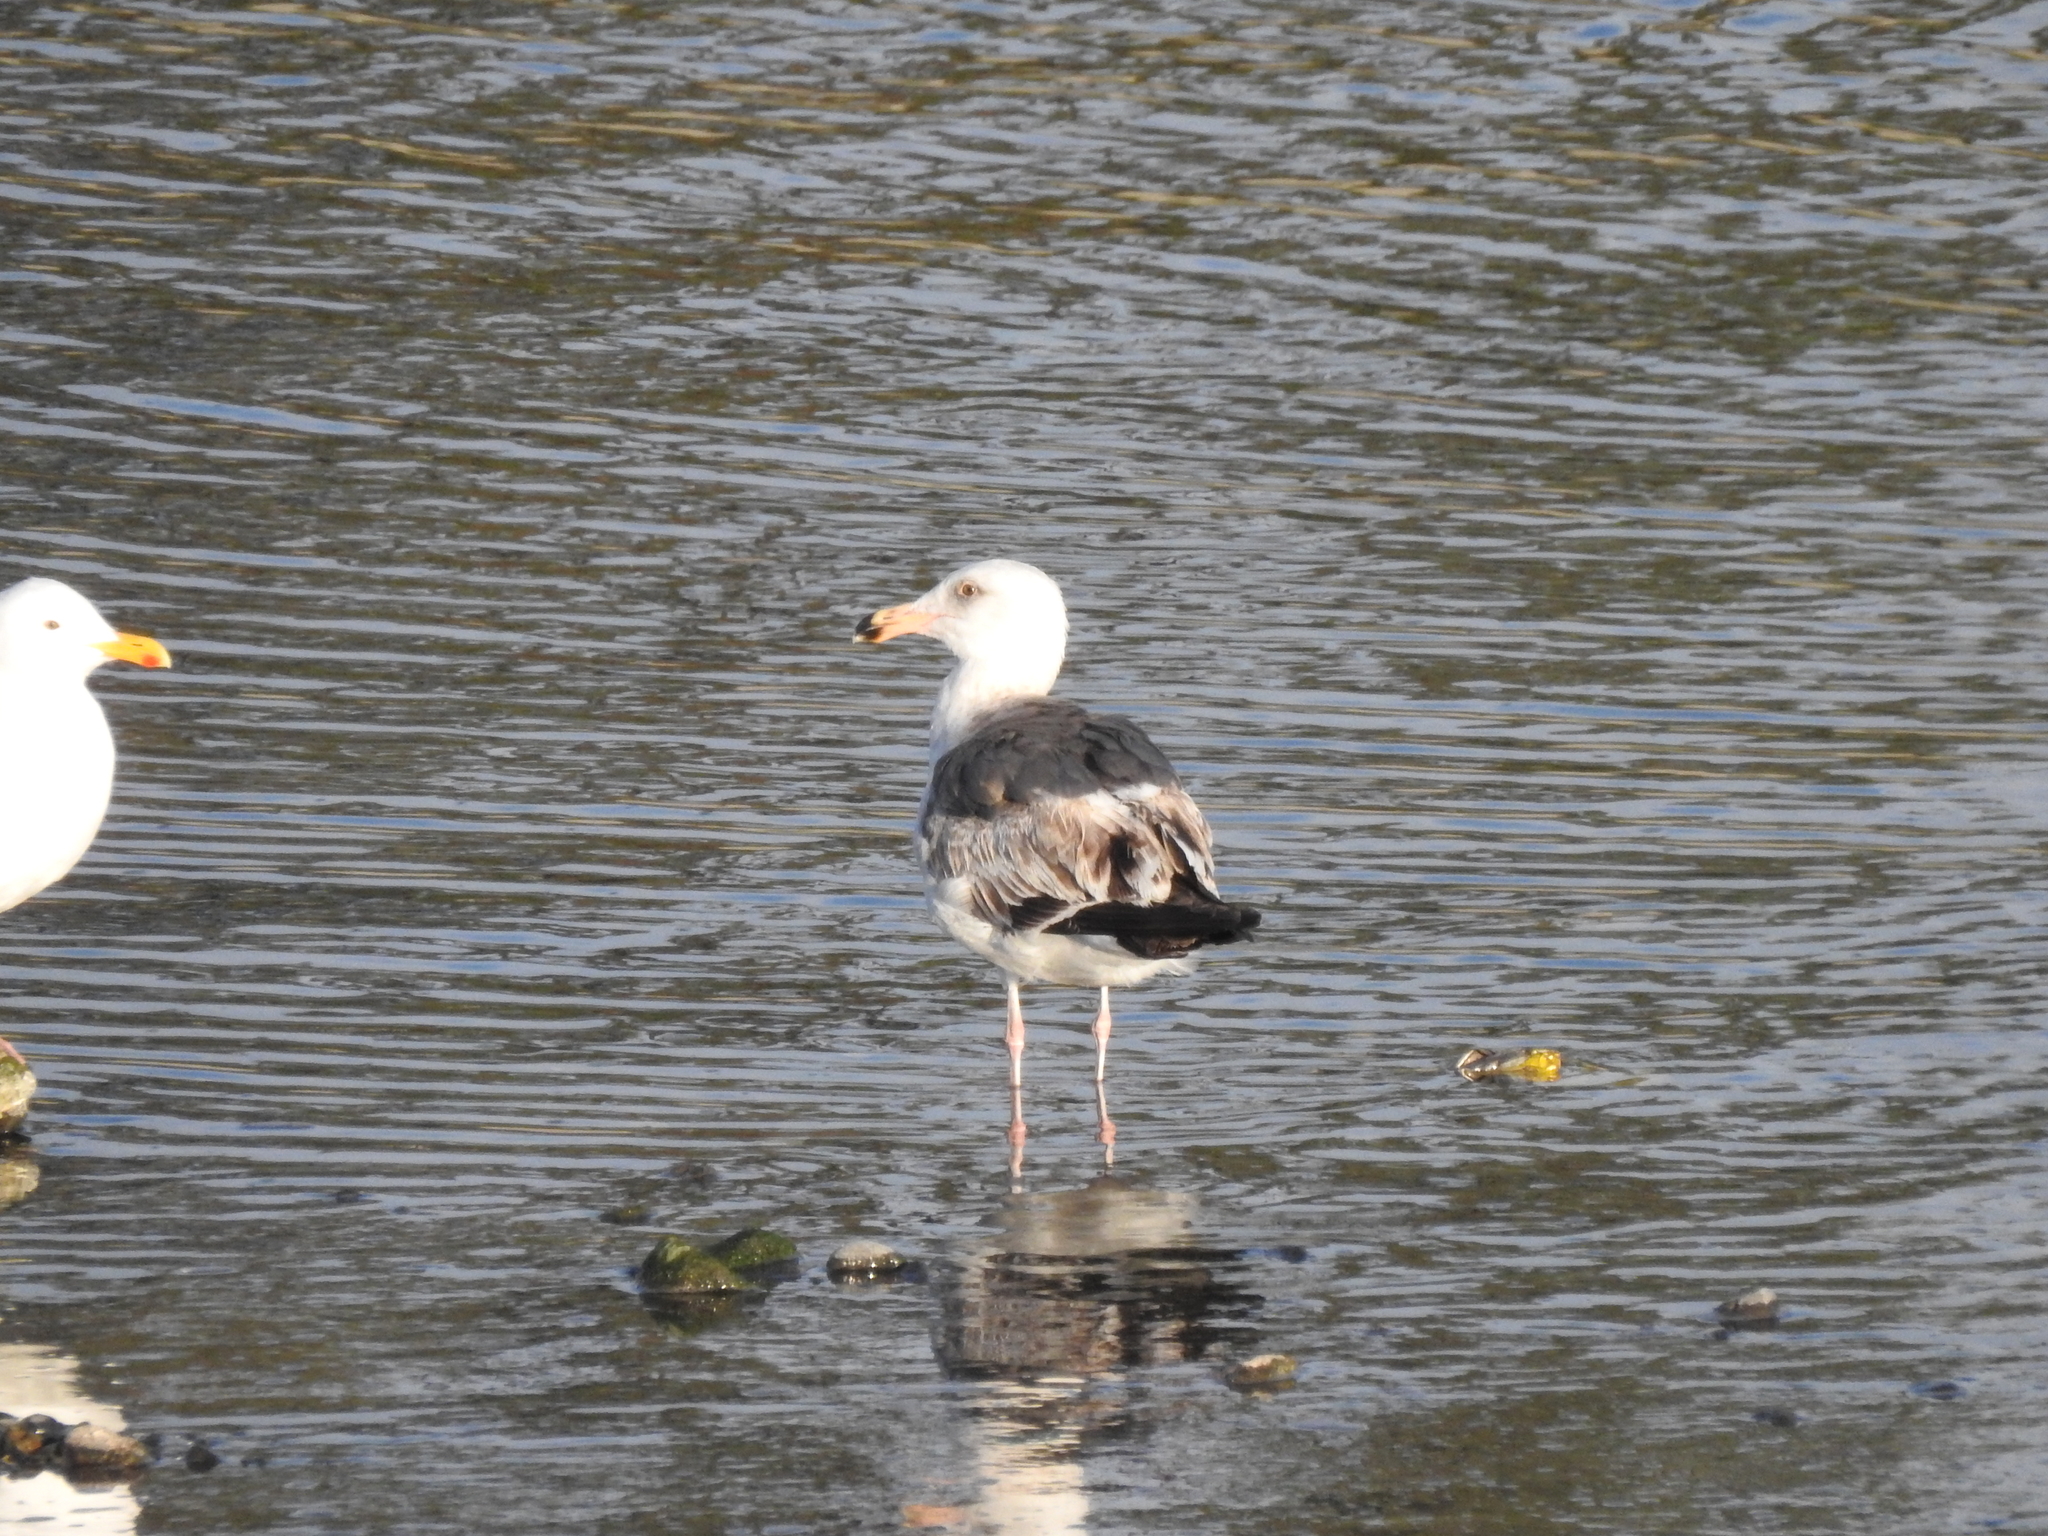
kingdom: Animalia
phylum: Chordata
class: Aves
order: Charadriiformes
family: Laridae
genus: Larus
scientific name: Larus occidentalis
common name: Western gull
